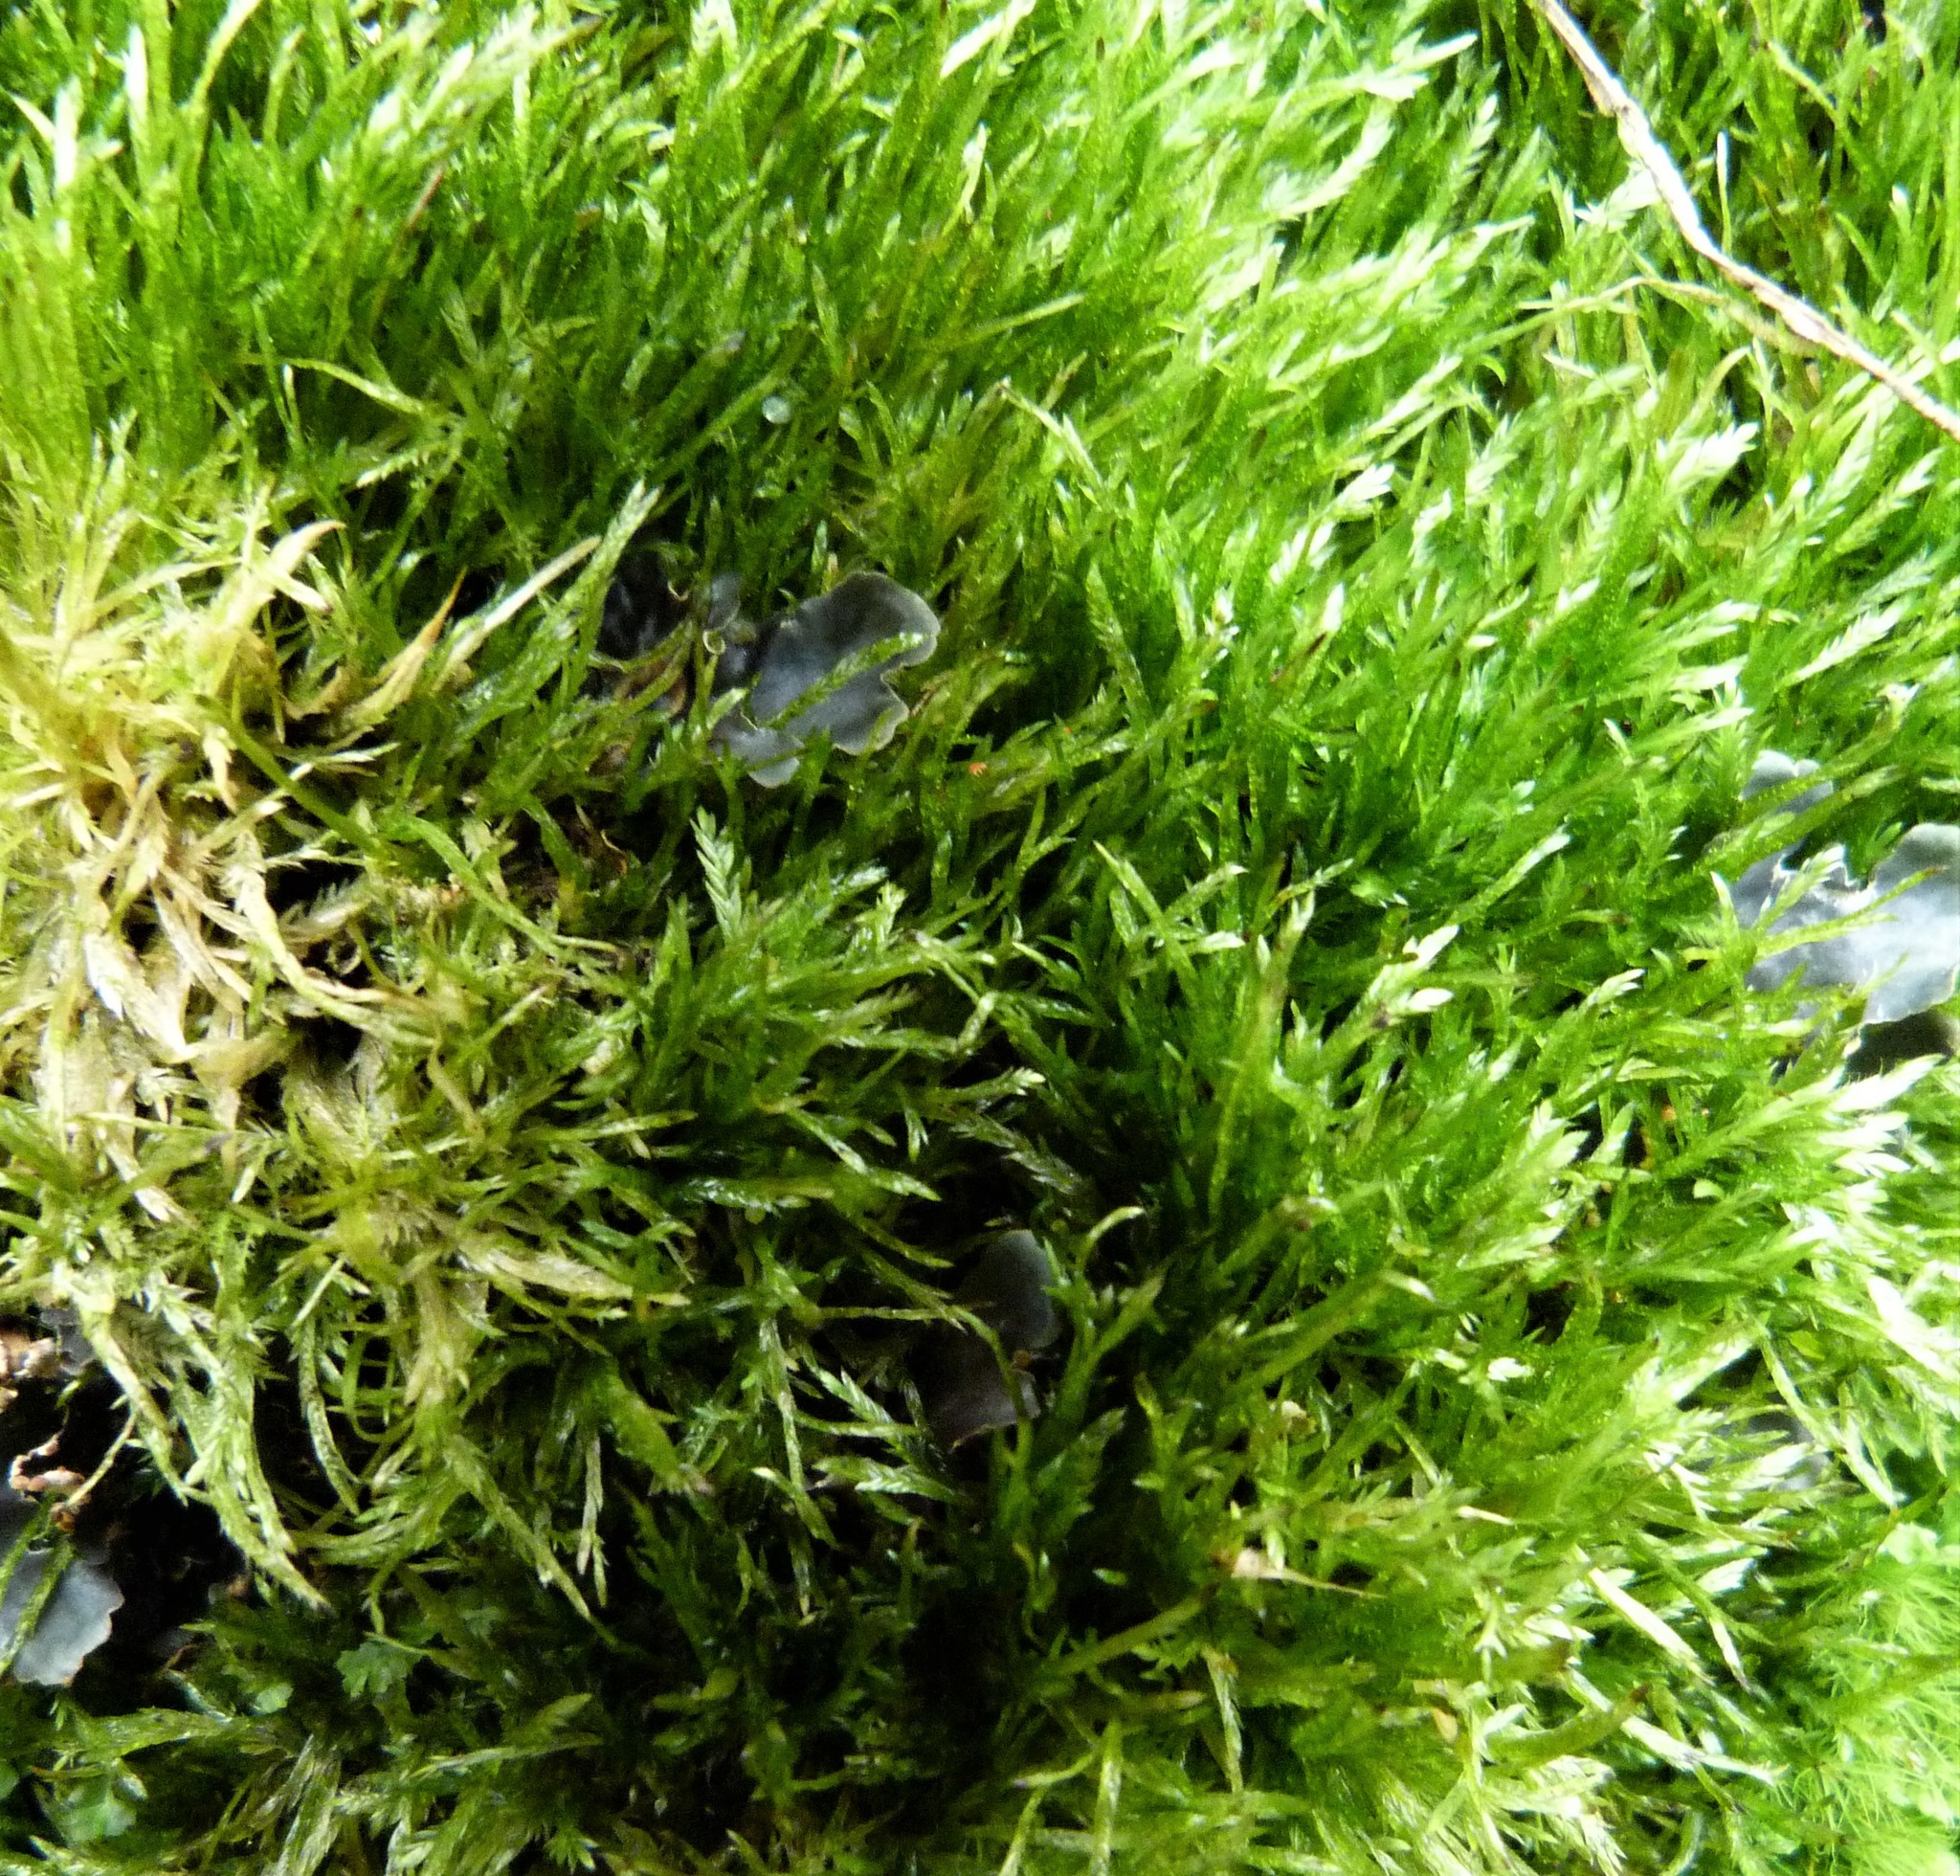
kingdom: Plantae
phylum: Bryophyta
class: Bryopsida
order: Hypnales
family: Catagoniaceae
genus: Catagonium
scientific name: Catagonium nitens
